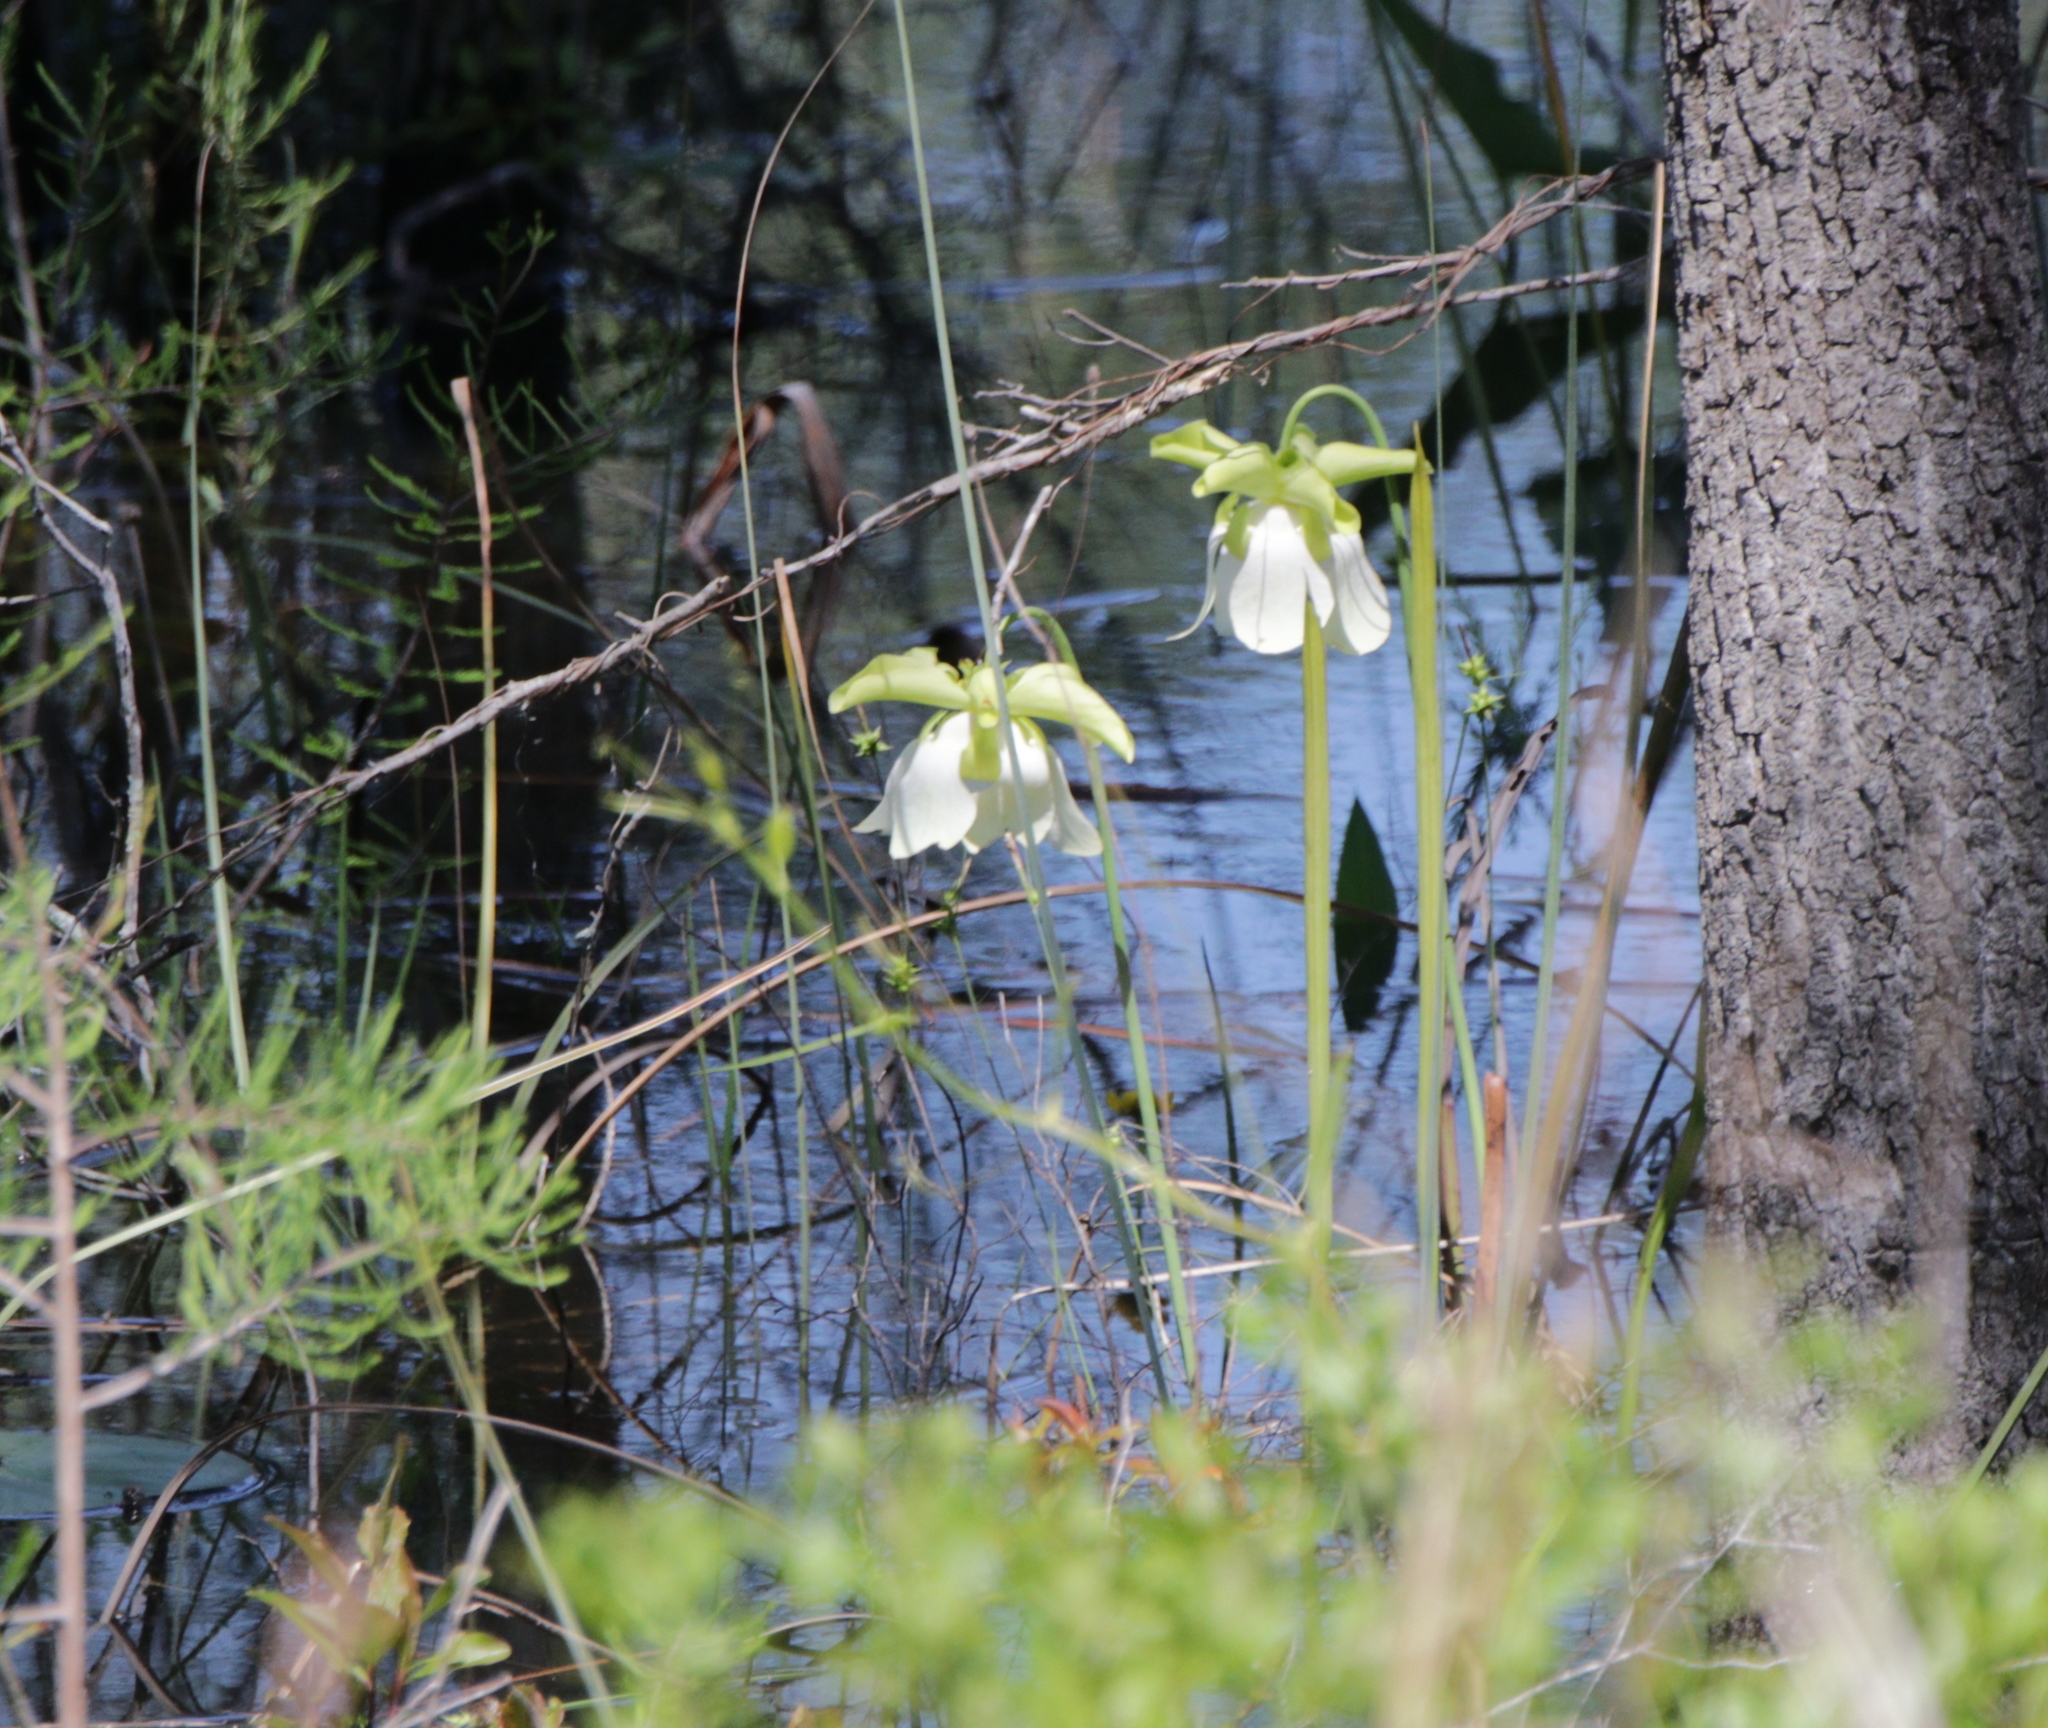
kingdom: Plantae
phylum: Tracheophyta
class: Magnoliopsida
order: Ericales
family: Sarraceniaceae
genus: Sarracenia
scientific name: Sarracenia alata
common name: Yellow trumpets
